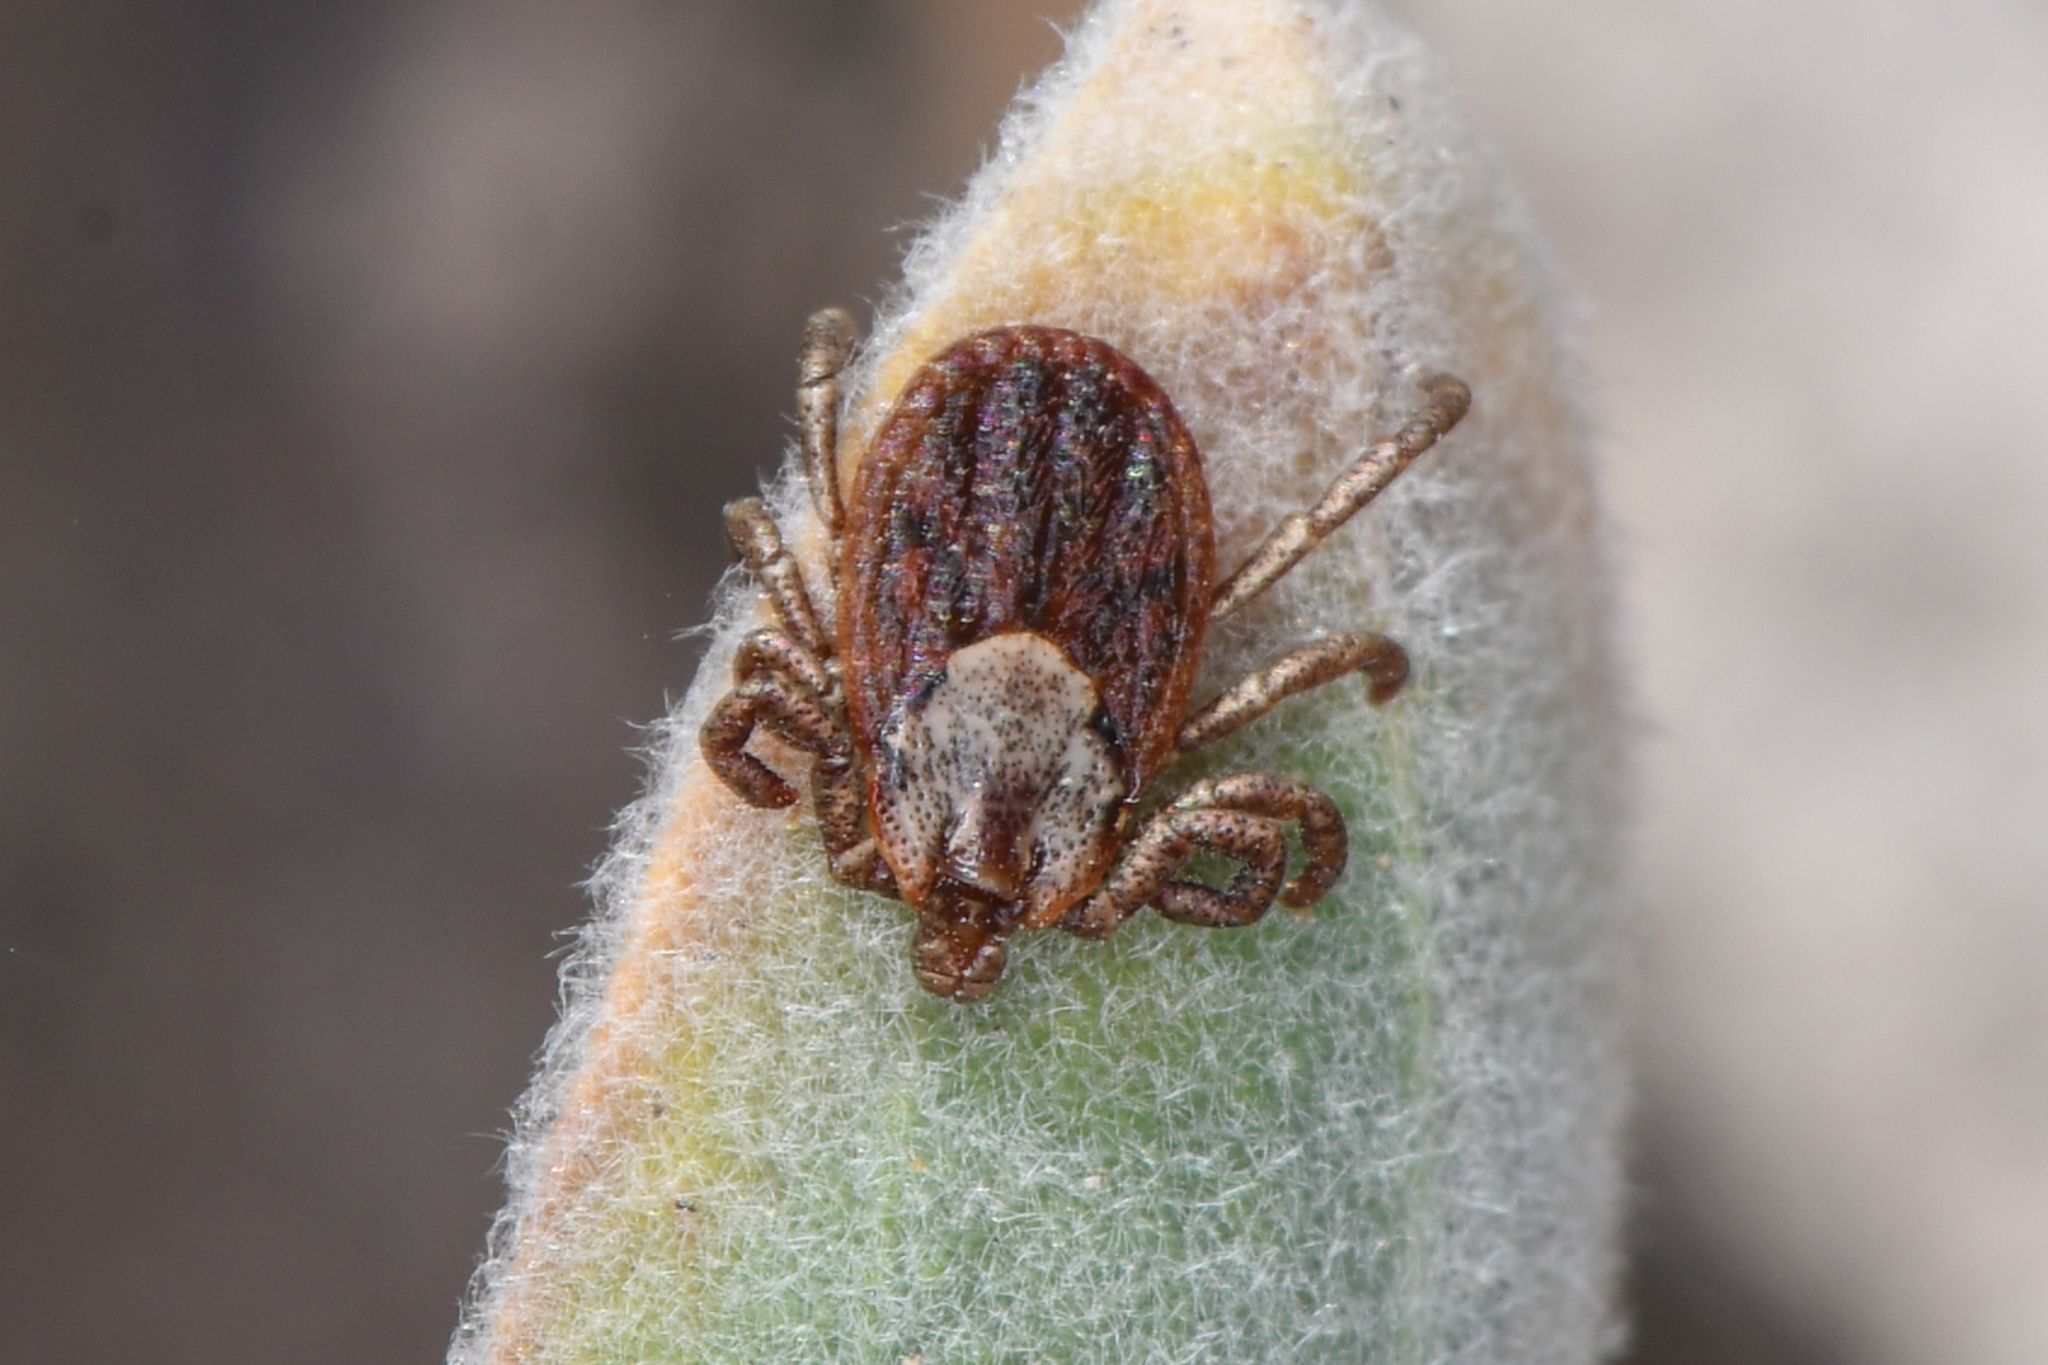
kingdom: Animalia
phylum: Arthropoda
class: Arachnida
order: Ixodida
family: Ixodidae
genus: Dermacentor
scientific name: Dermacentor occidentalis
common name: Net tick
